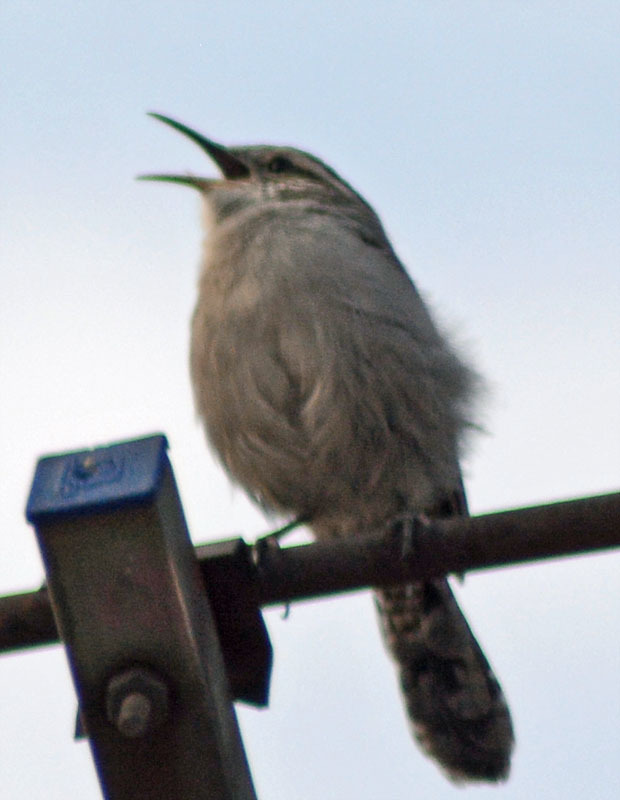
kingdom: Animalia
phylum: Chordata
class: Aves
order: Passeriformes
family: Troglodytidae
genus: Thryomanes
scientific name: Thryomanes bewickii
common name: Bewick's wren
